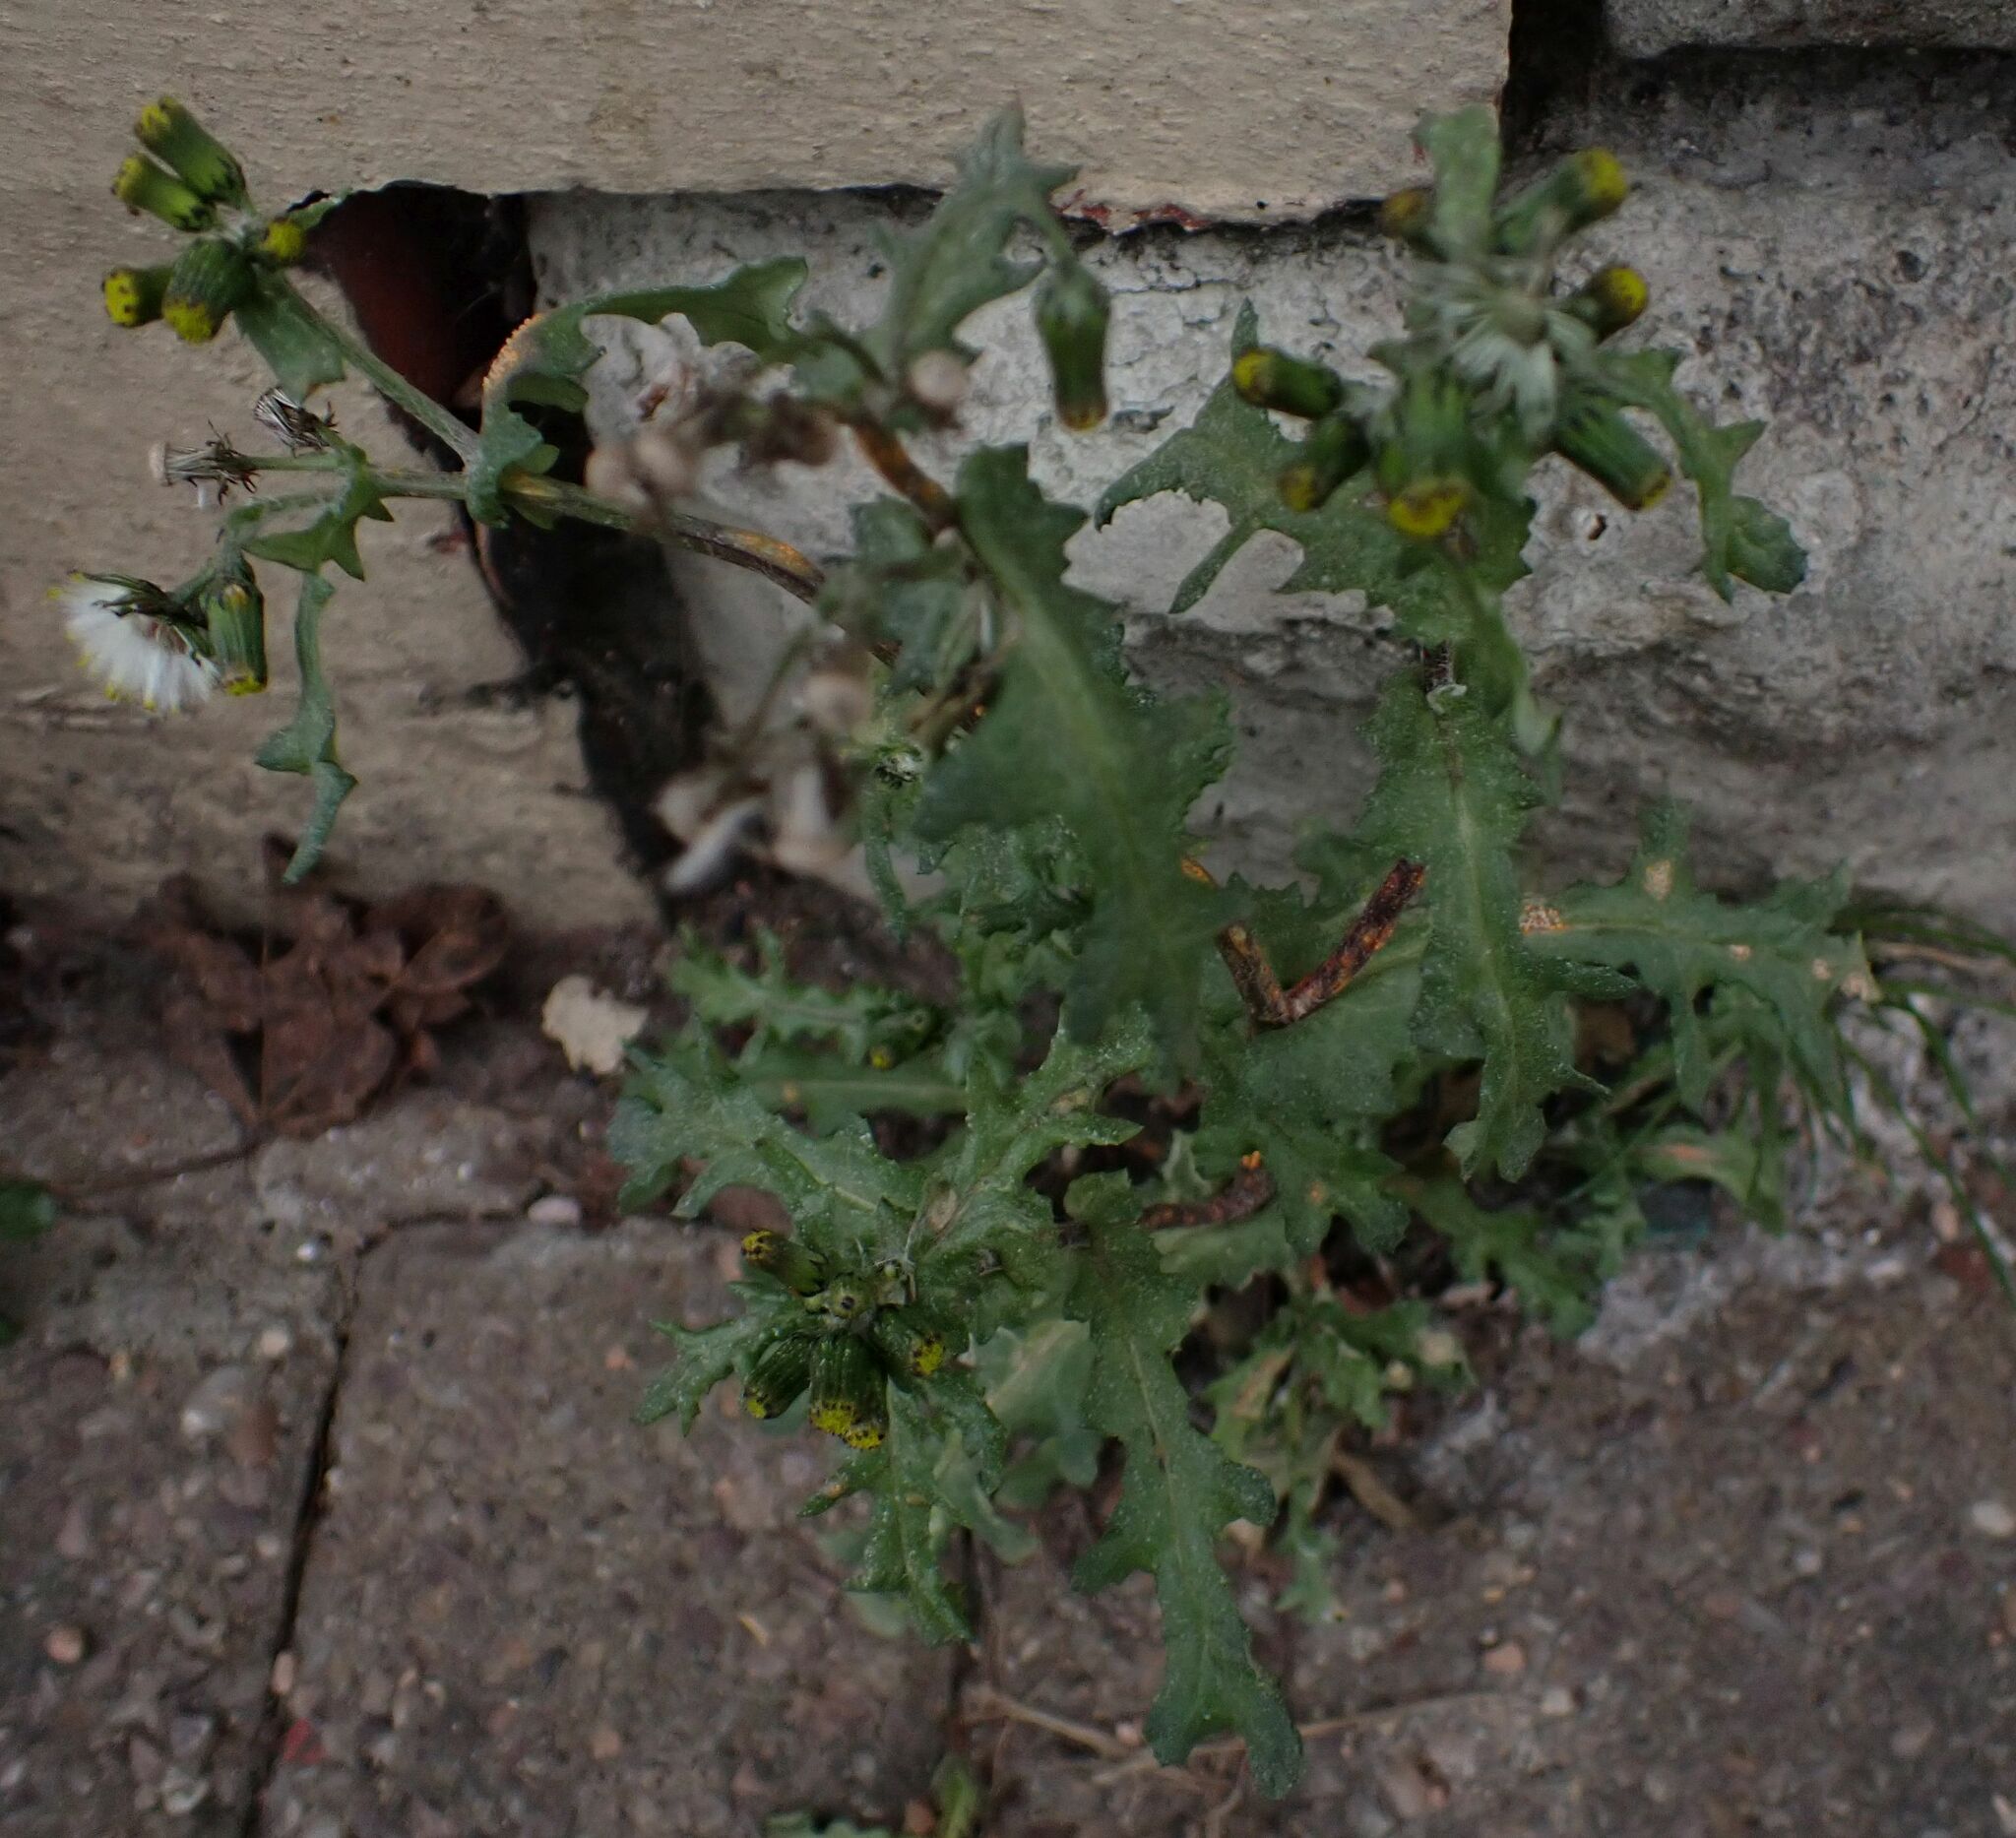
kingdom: Plantae
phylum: Tracheophyta
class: Magnoliopsida
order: Asterales
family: Asteraceae
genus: Senecio
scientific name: Senecio vulgaris
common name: Old-man-in-the-spring
